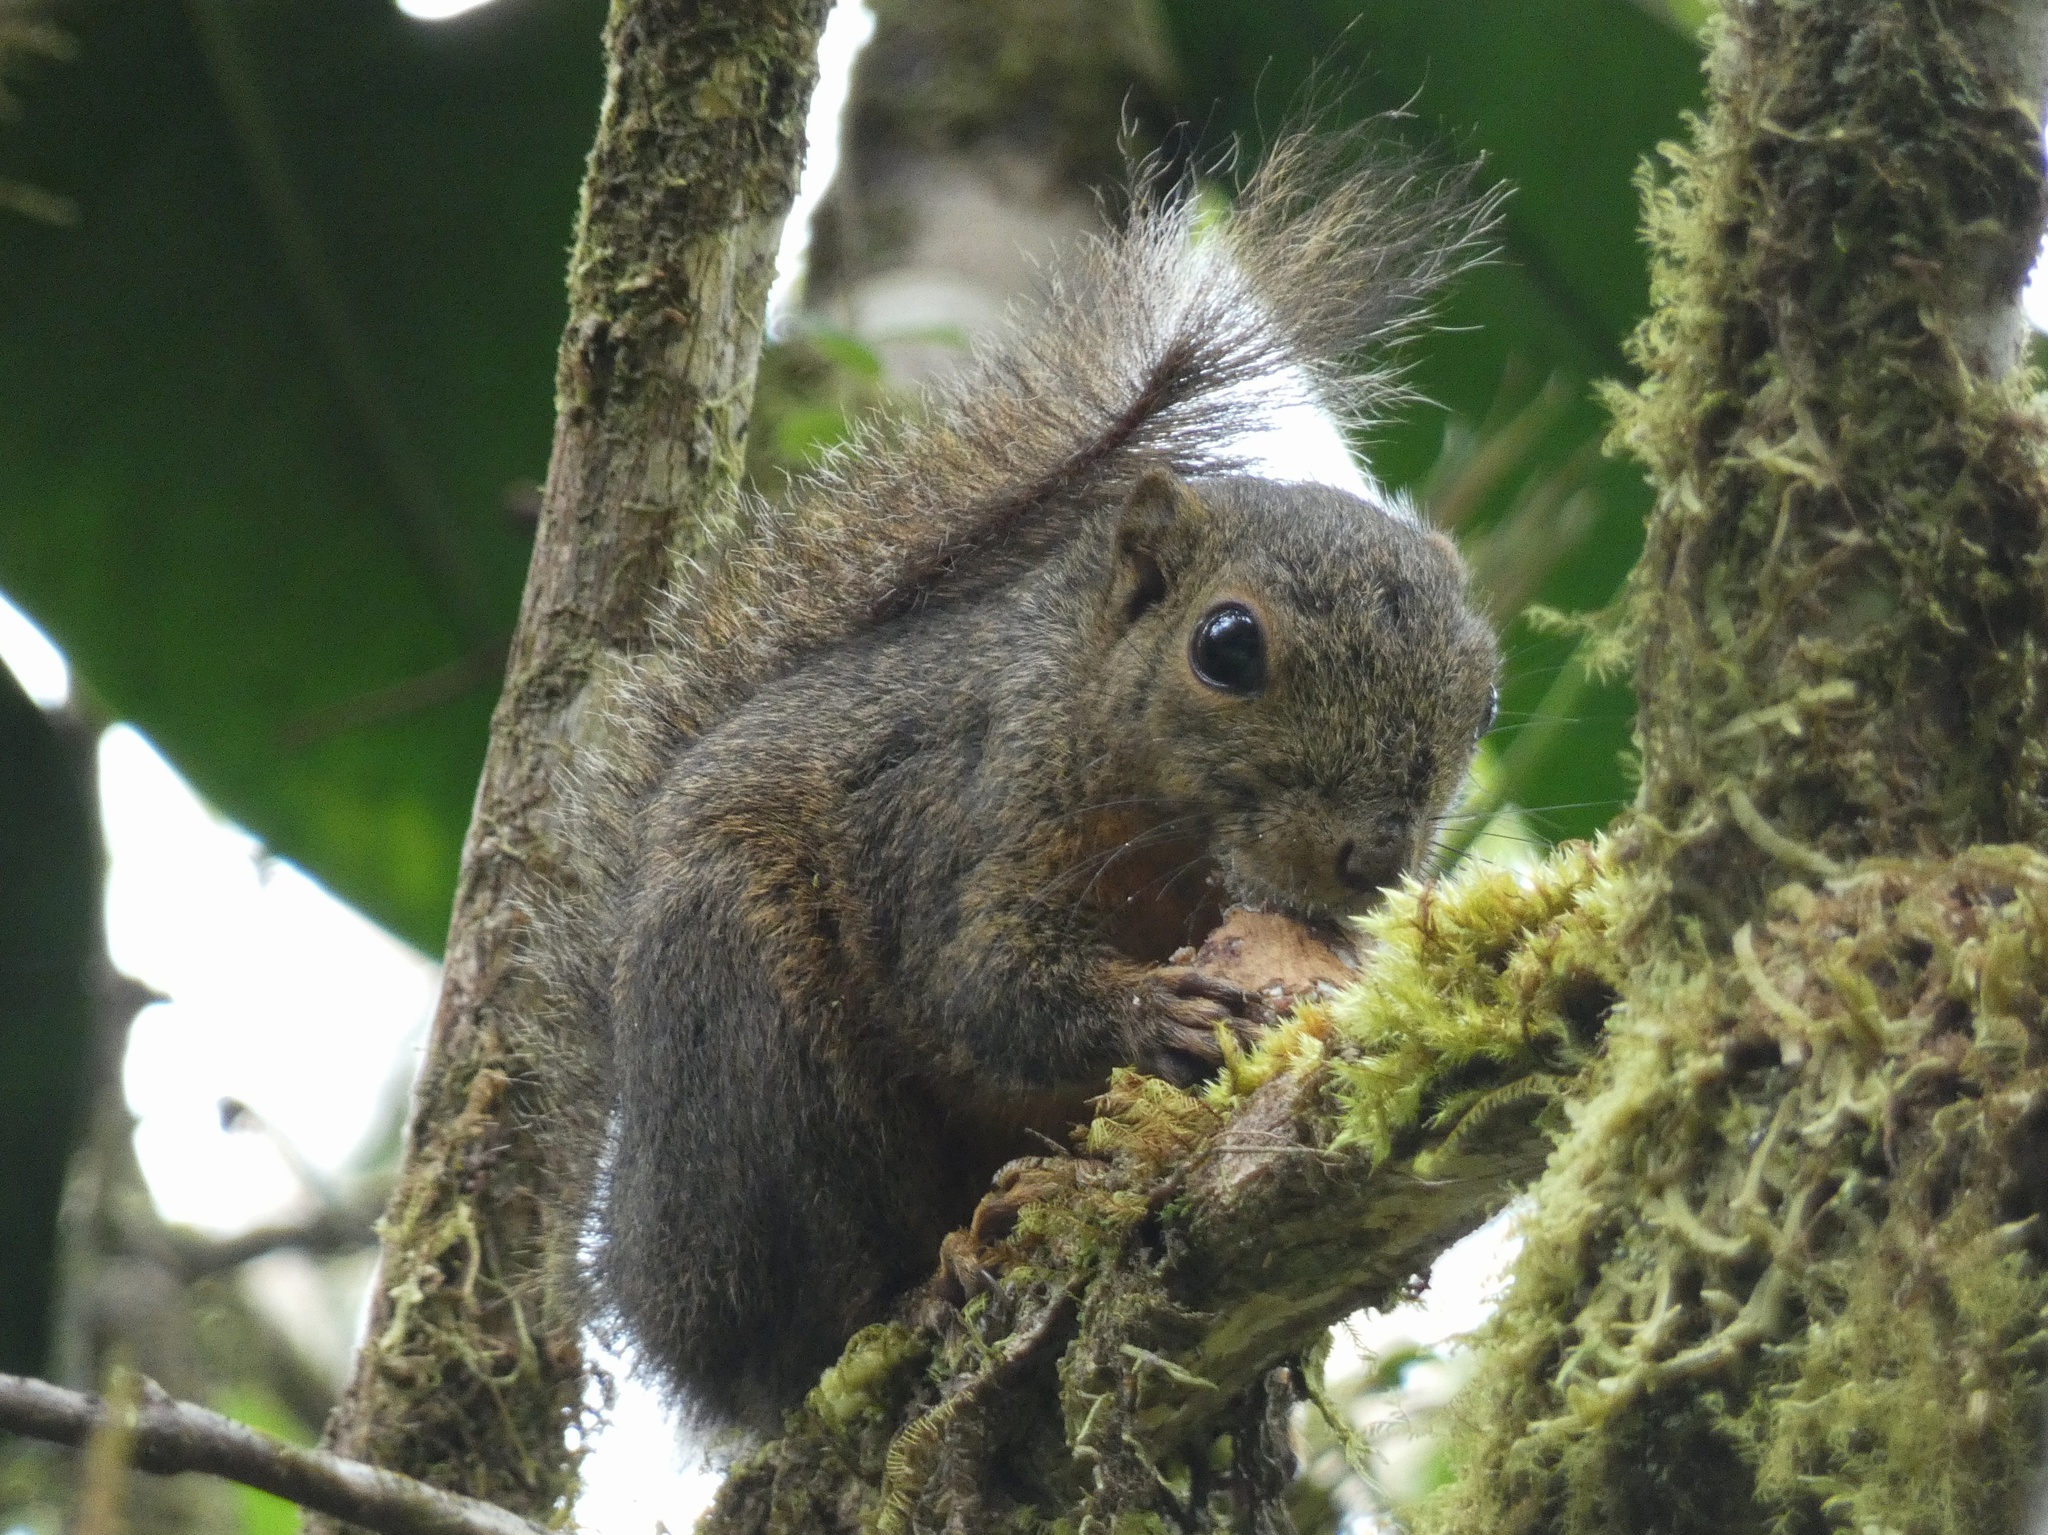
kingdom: Animalia
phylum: Chordata
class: Mammalia
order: Rodentia
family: Sciuridae
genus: Microsciurus
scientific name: Microsciurus mimulus
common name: Western dwarf squirrel
